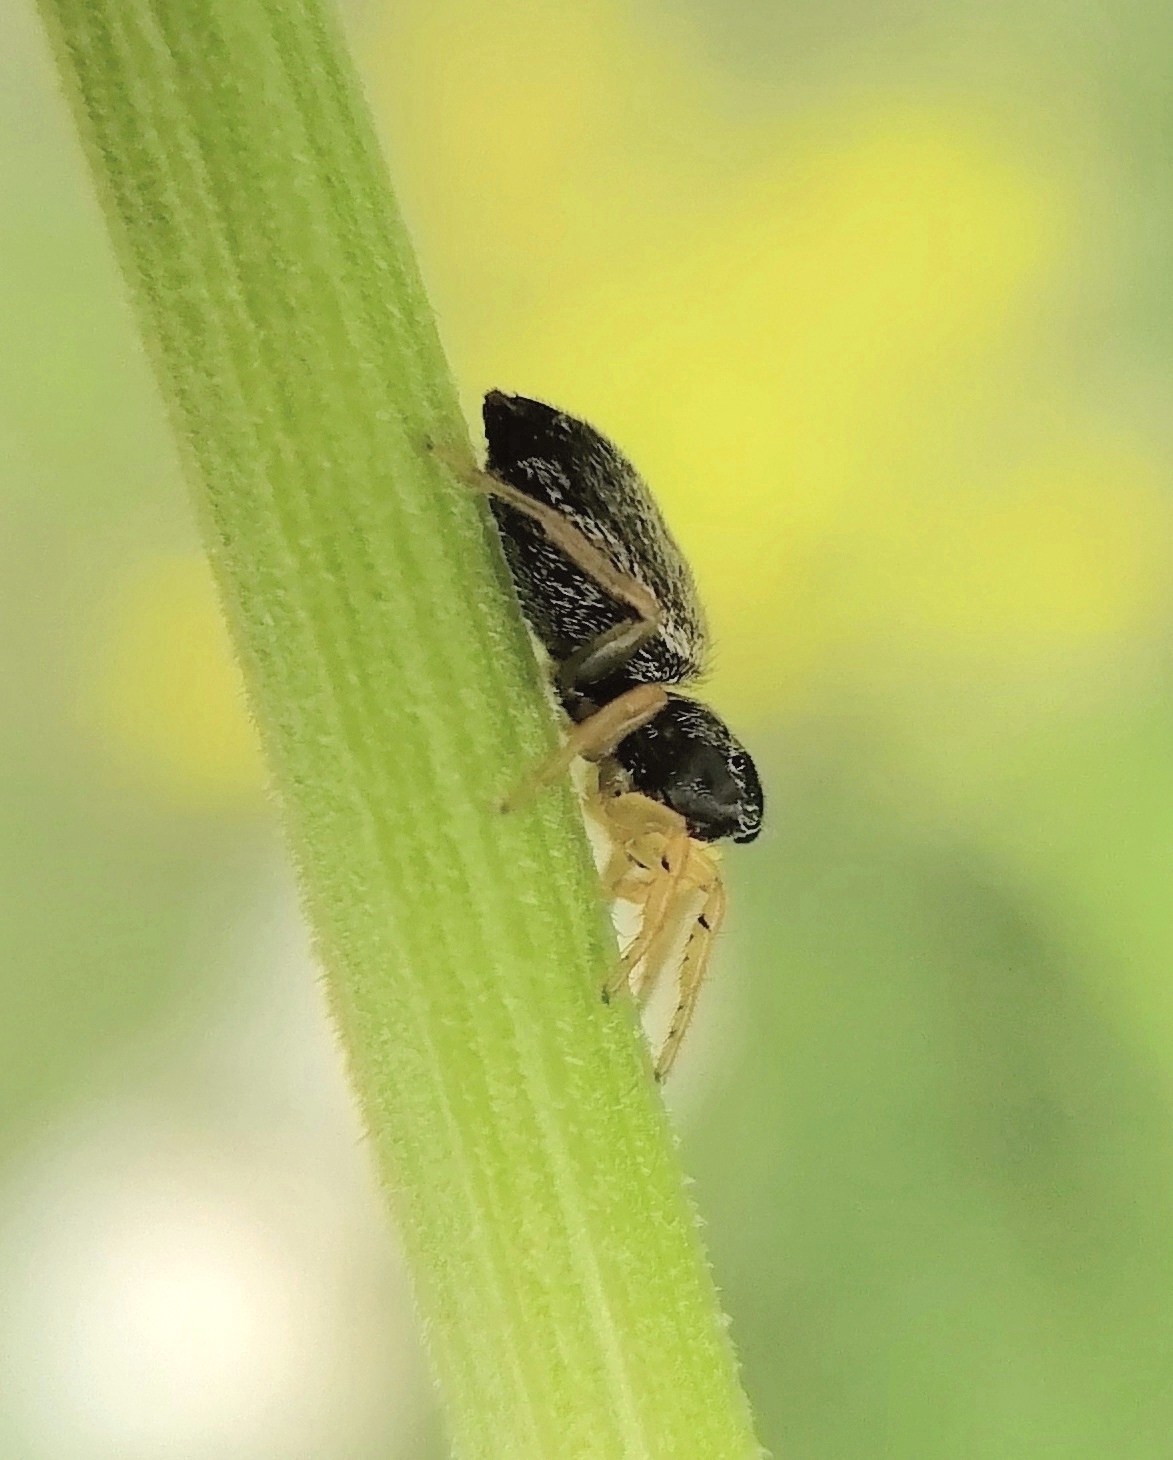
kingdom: Animalia
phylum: Arthropoda
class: Arachnida
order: Araneae
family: Salticidae
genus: Heliophanus
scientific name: Heliophanus flavipes
